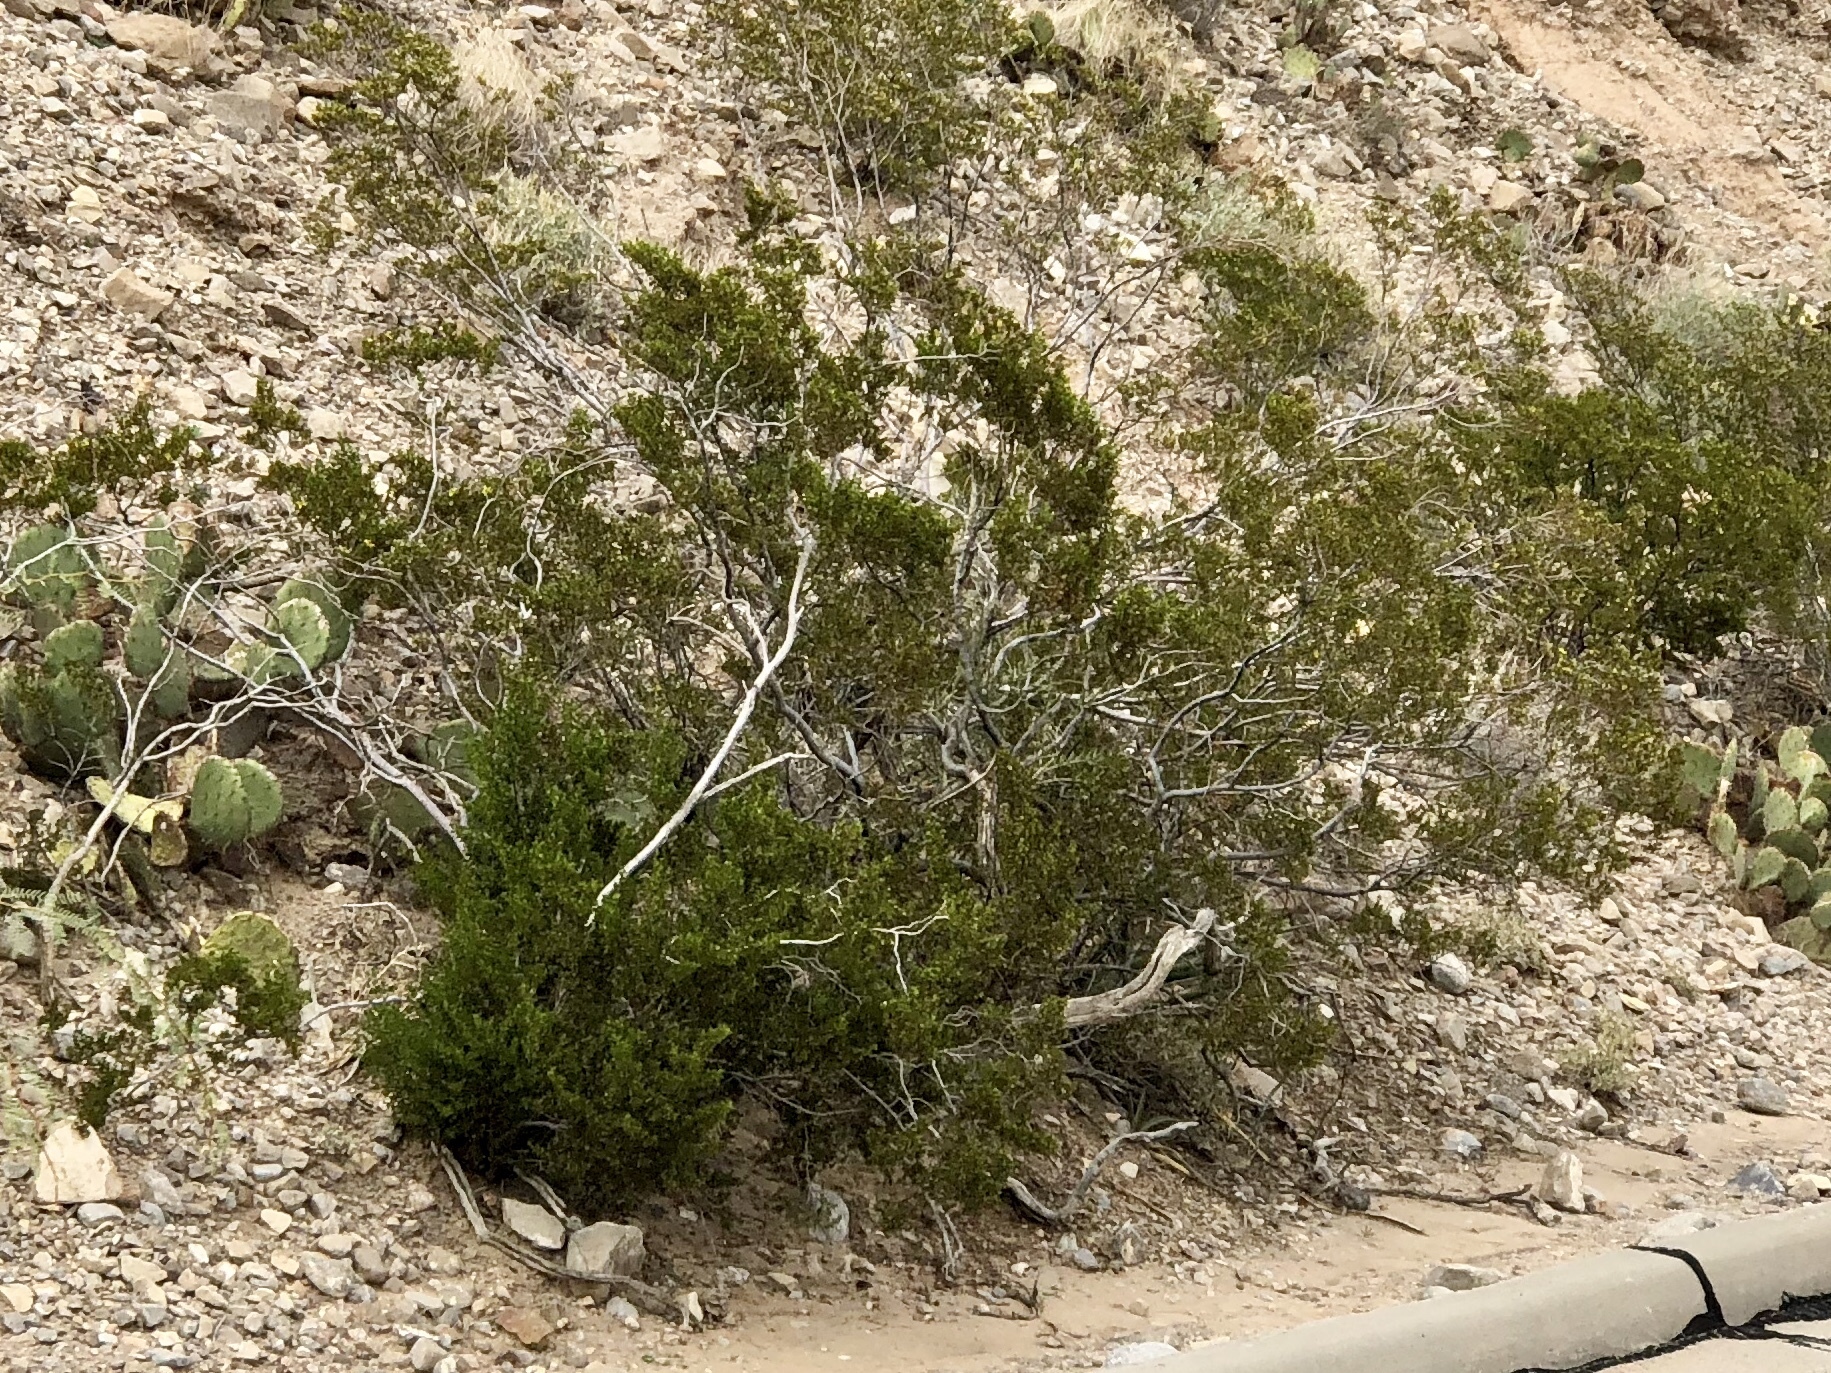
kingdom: Plantae
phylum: Tracheophyta
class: Magnoliopsida
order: Zygophyllales
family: Zygophyllaceae
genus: Larrea
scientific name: Larrea tridentata
